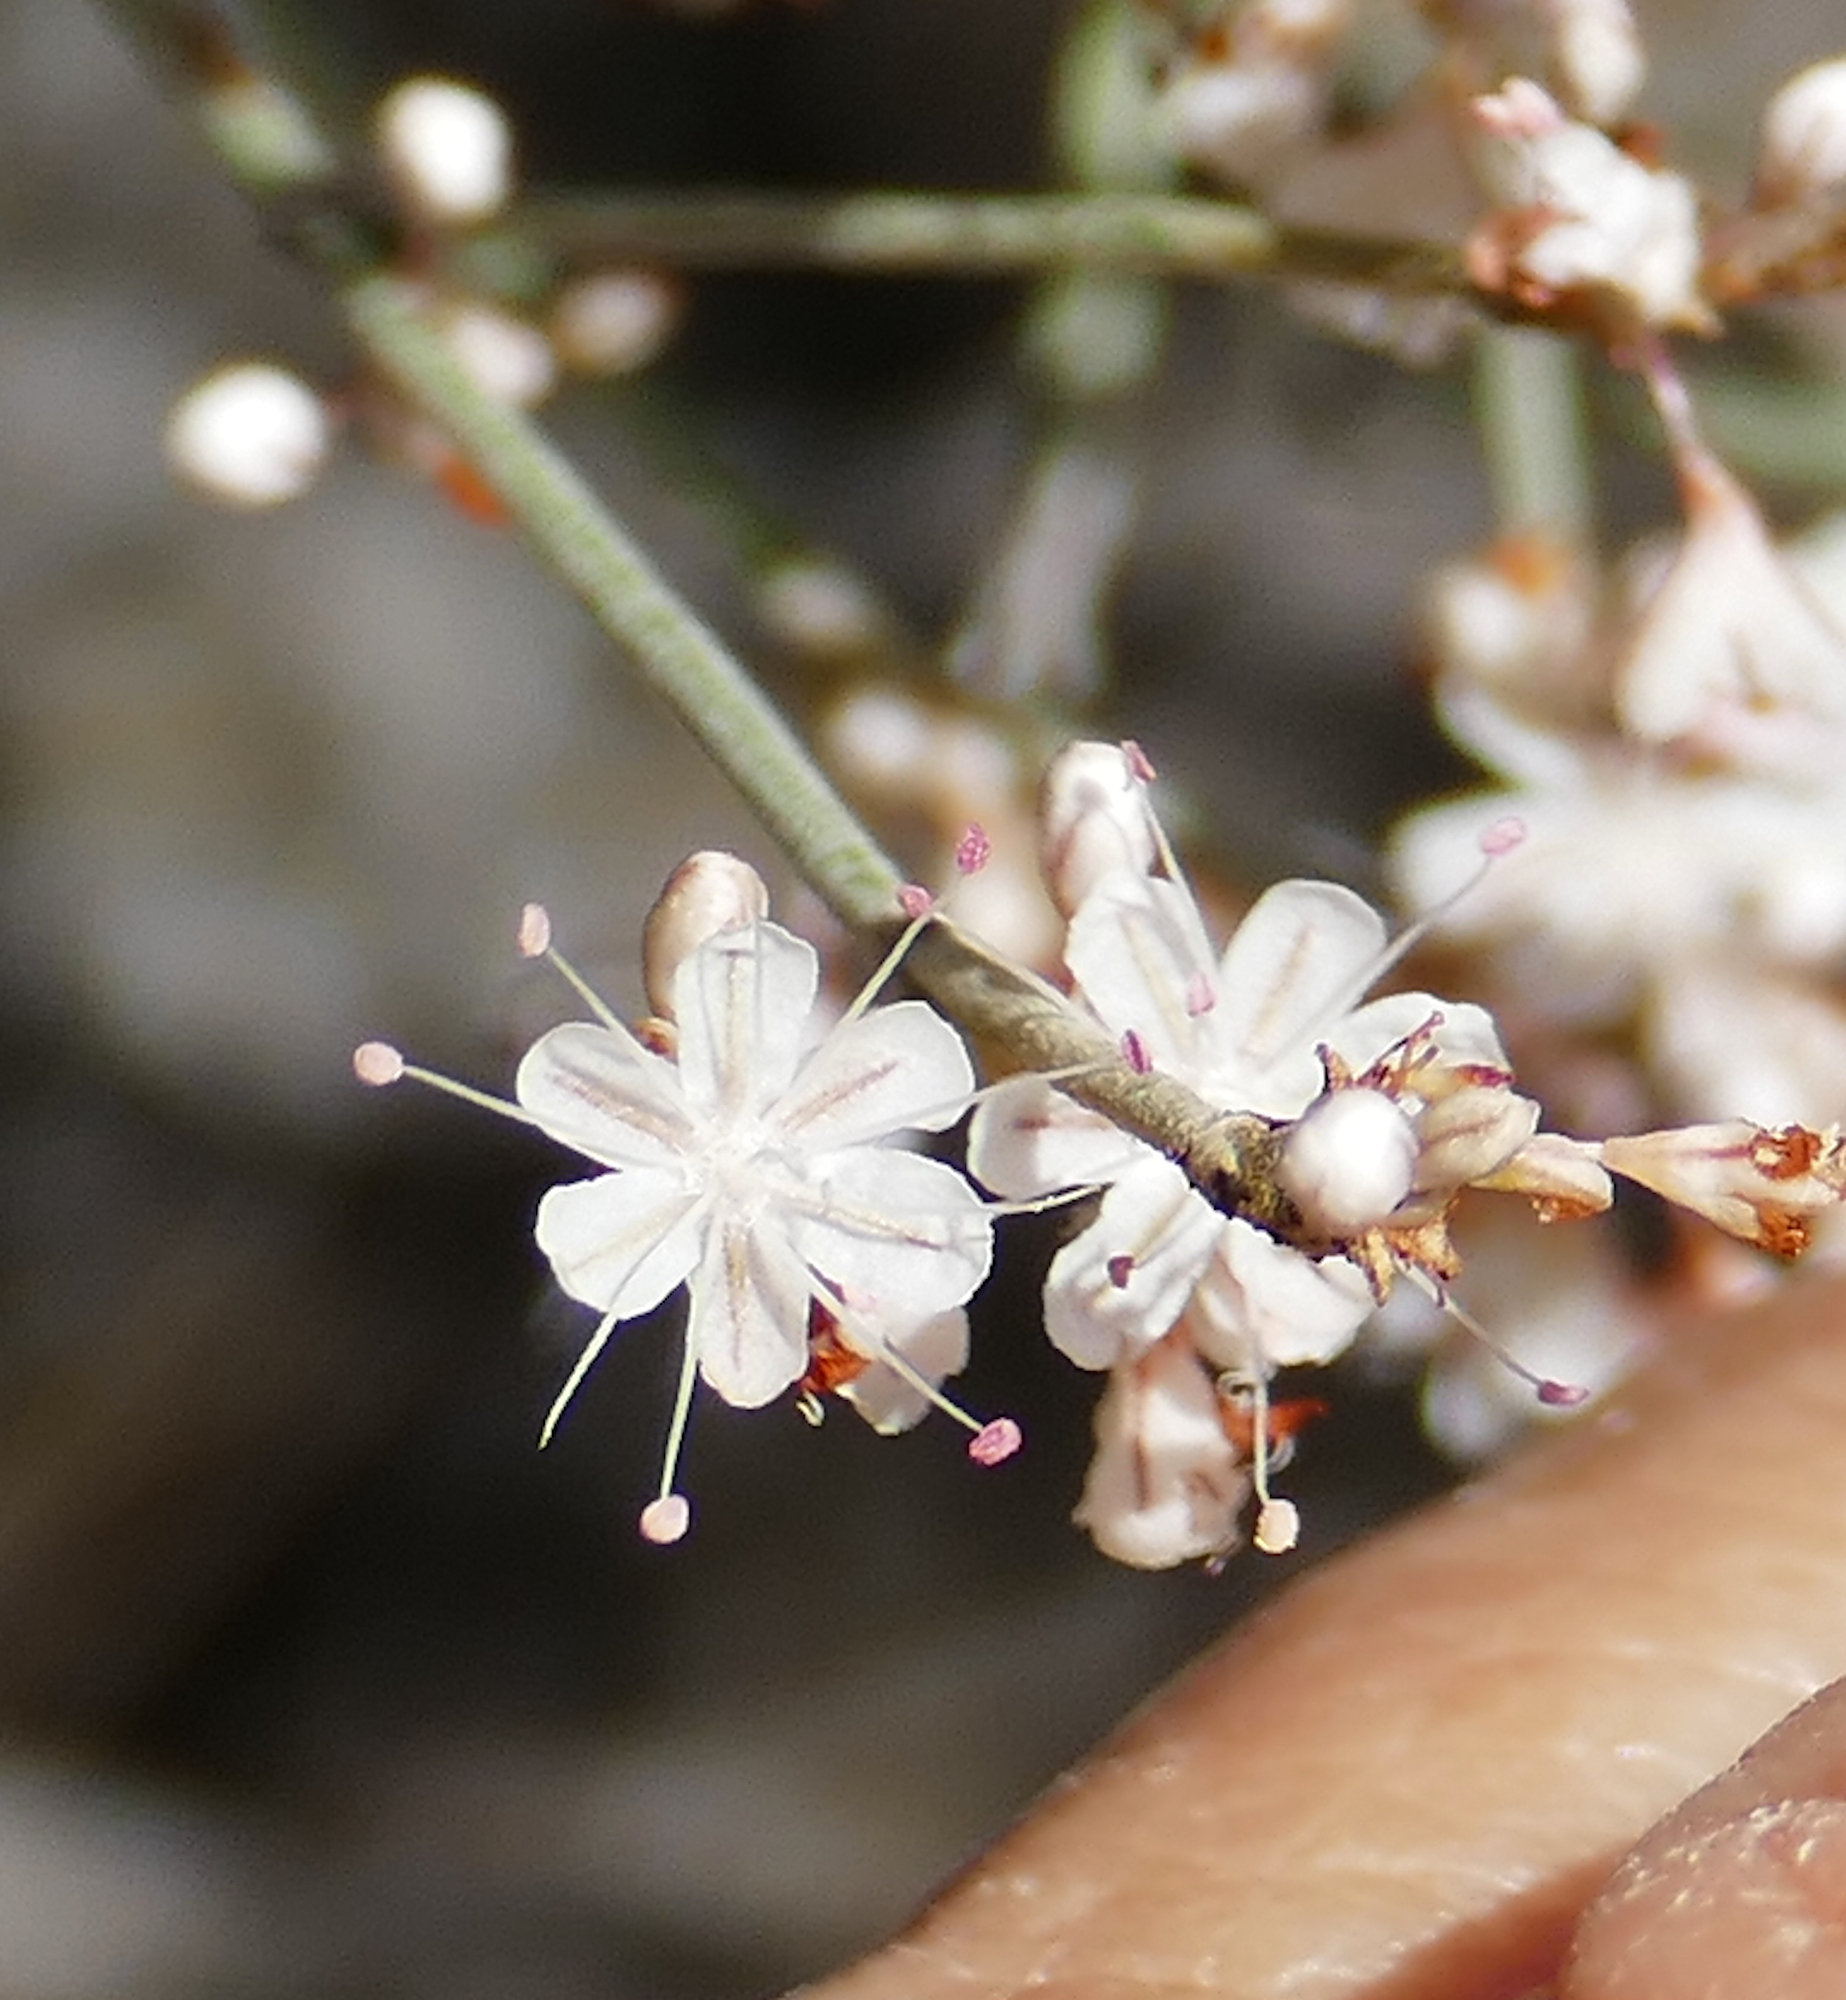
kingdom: Plantae
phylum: Tracheophyta
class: Magnoliopsida
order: Caryophyllales
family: Polygonaceae
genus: Eriogonum
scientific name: Eriogonum wrightii
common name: Bastard-sage
